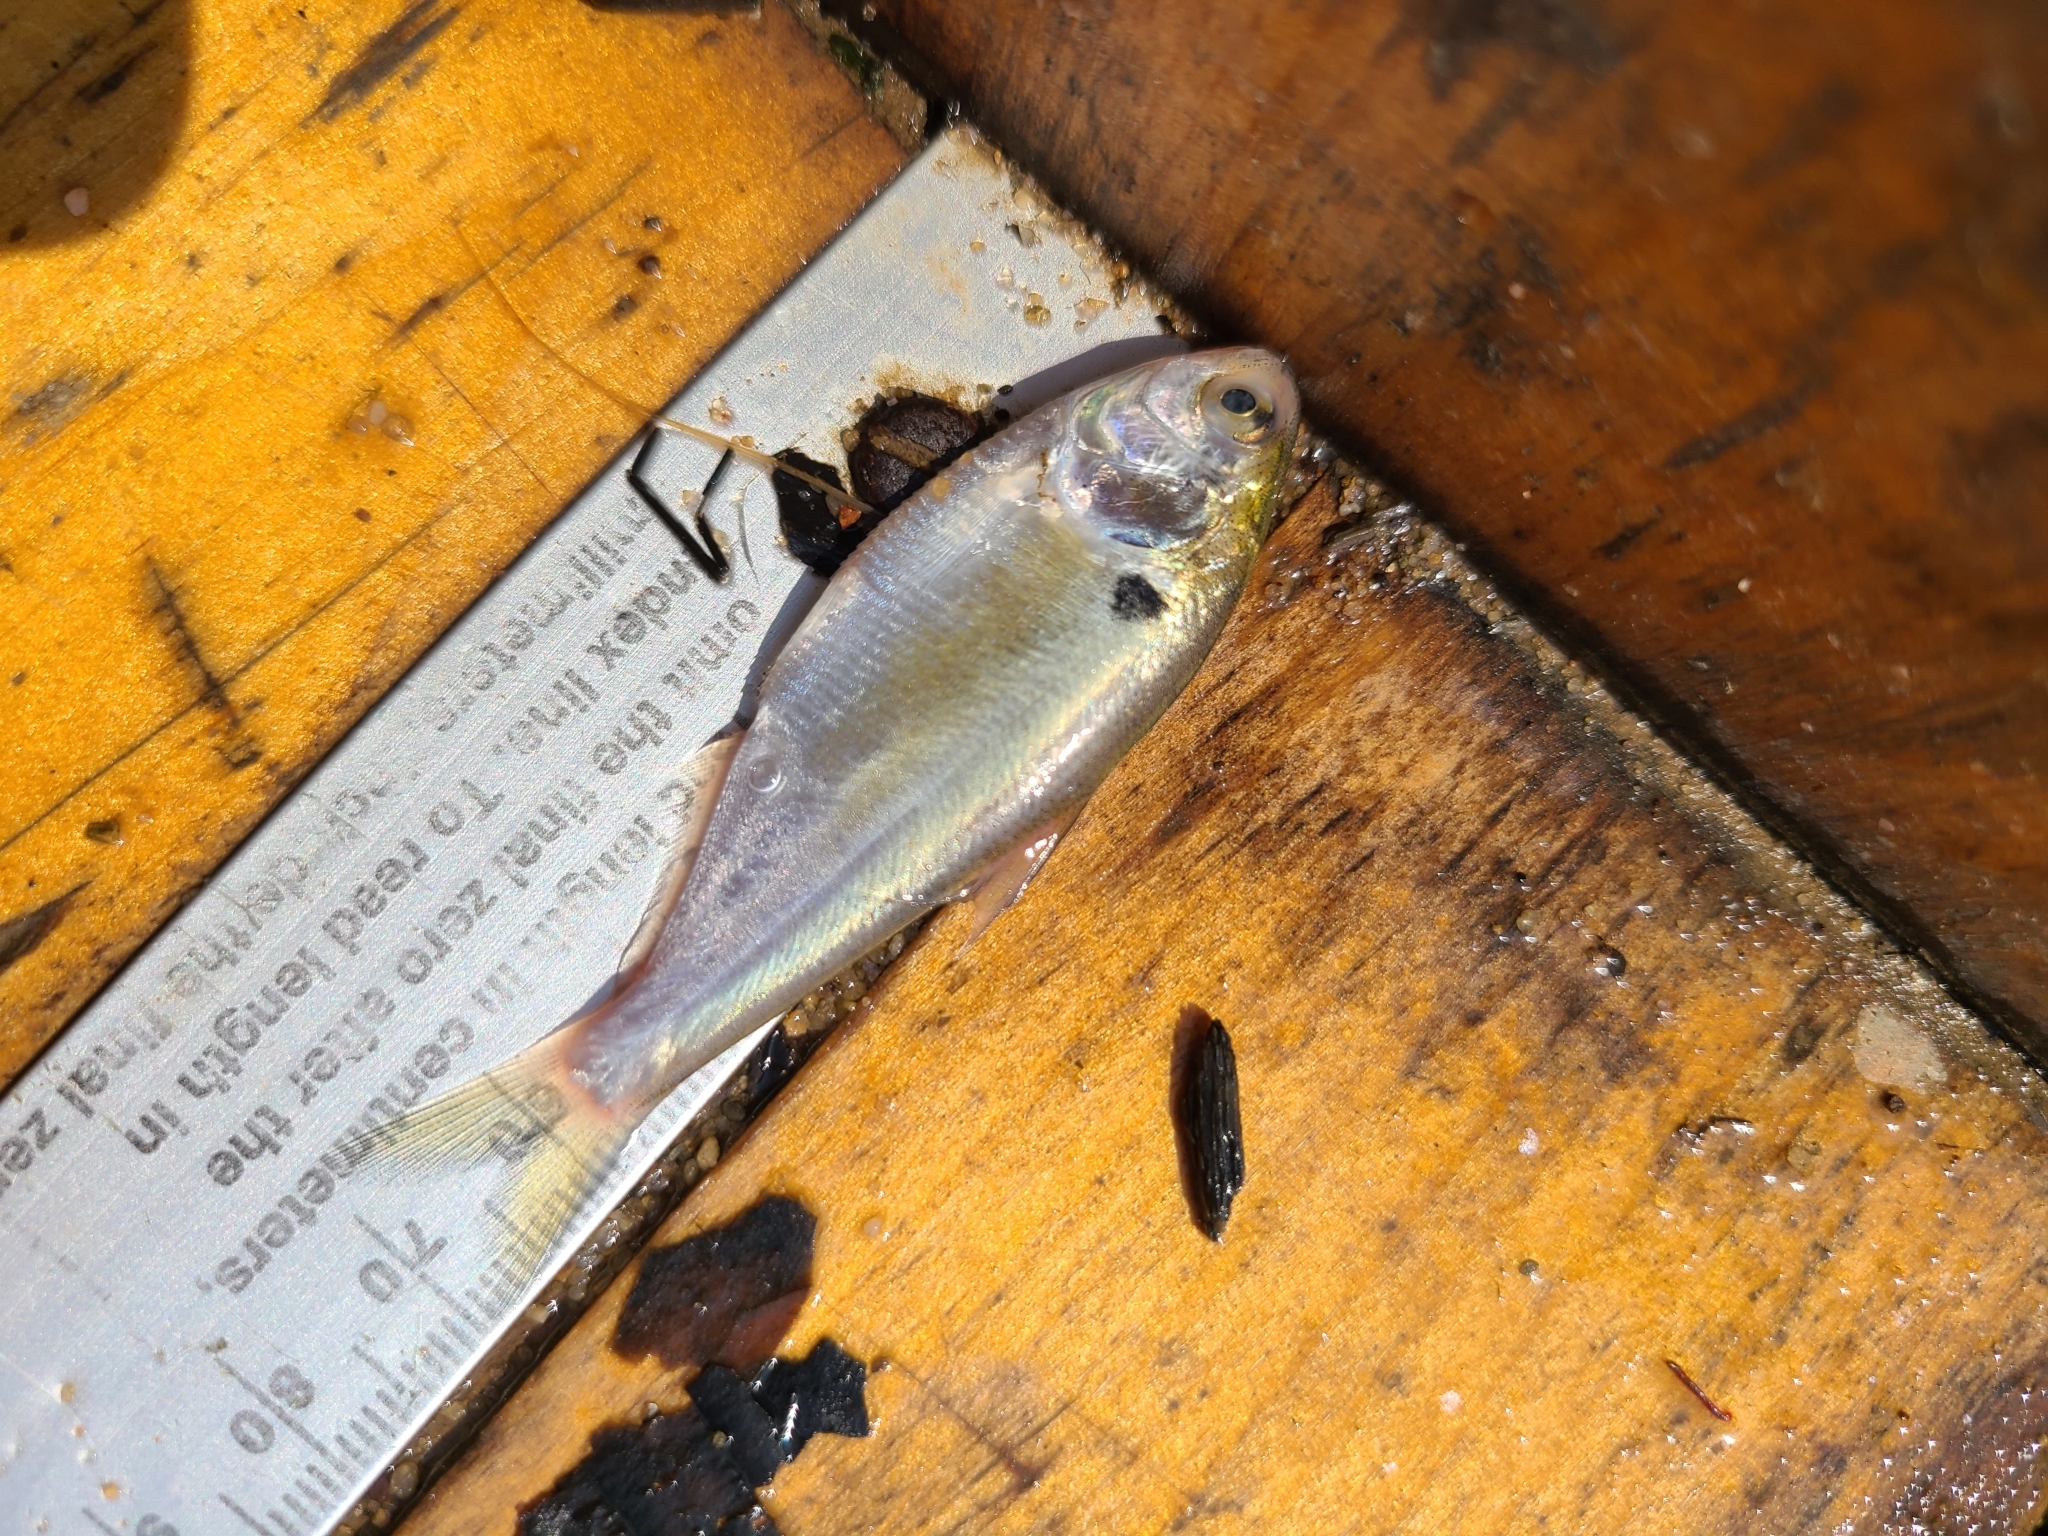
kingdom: Animalia
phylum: Chordata
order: Clupeiformes
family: Clupeidae
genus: Dorosoma
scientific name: Dorosoma cepedianum
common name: Gizzard shad
